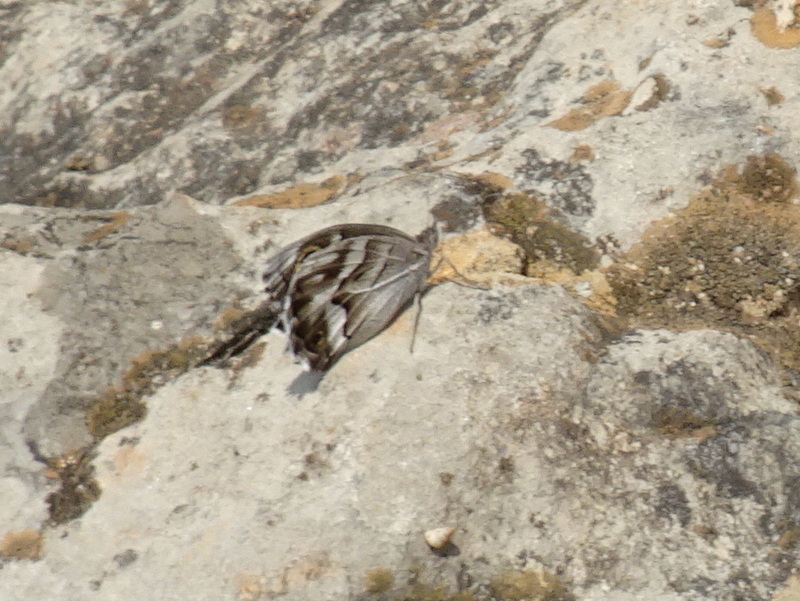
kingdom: Animalia
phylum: Arthropoda
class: Insecta
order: Lepidoptera
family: Nymphalidae
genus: Hipparchia
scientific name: Hipparchia fidia
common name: Striped grayling
